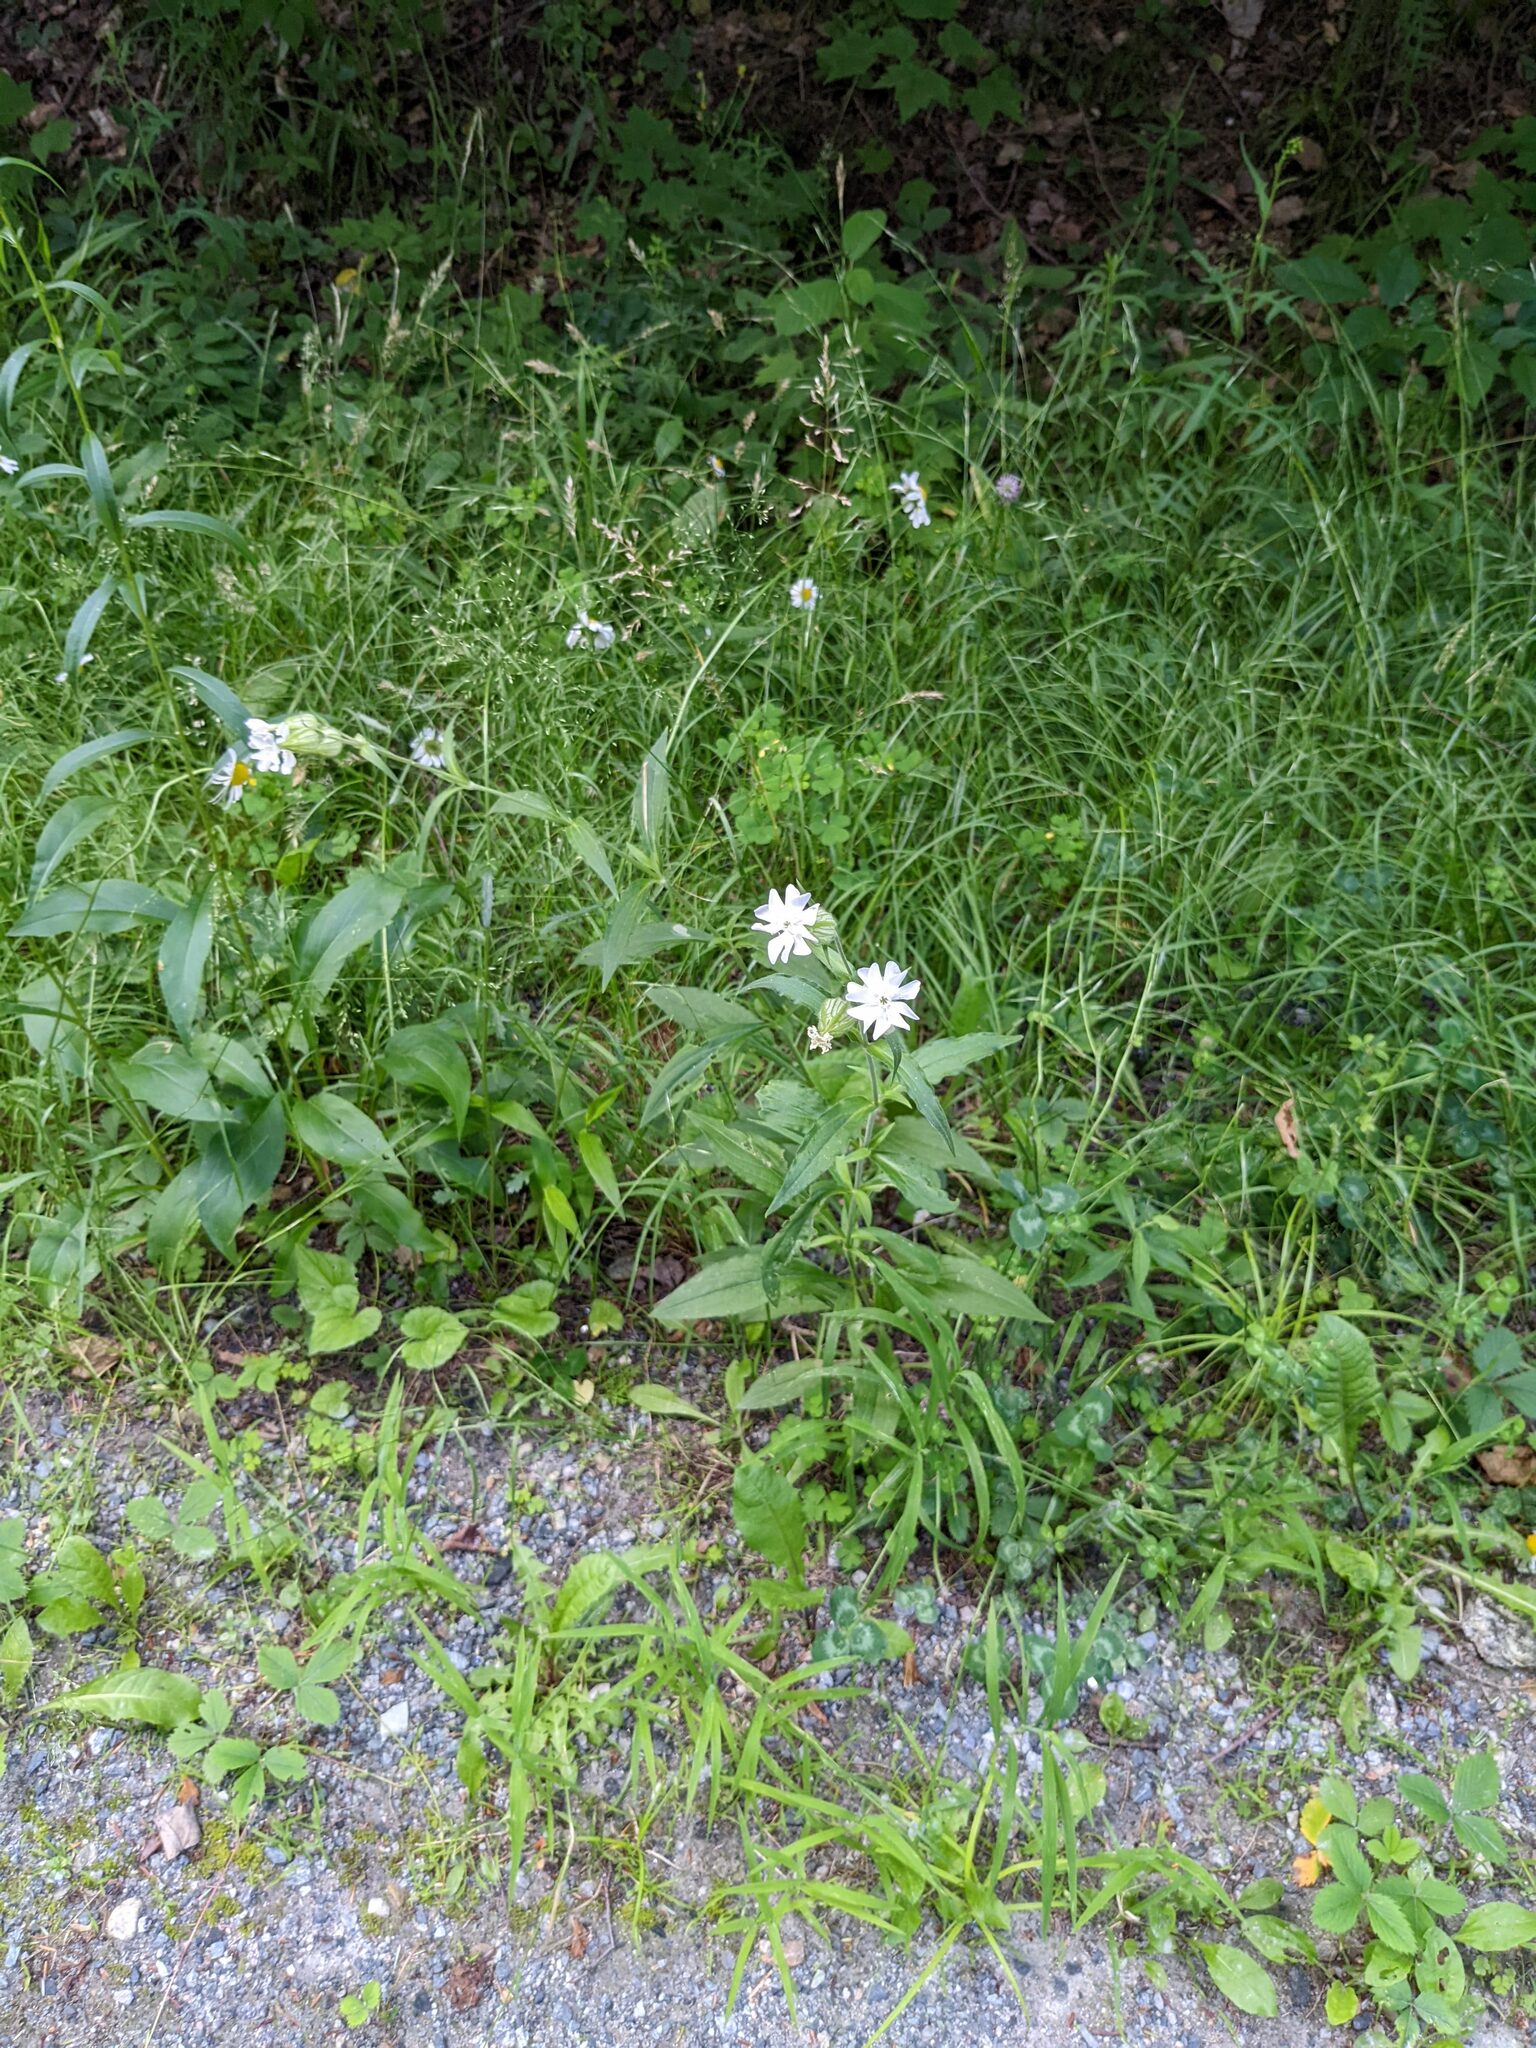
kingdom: Plantae
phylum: Tracheophyta
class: Magnoliopsida
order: Caryophyllales
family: Caryophyllaceae
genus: Silene
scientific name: Silene latifolia
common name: White campion
